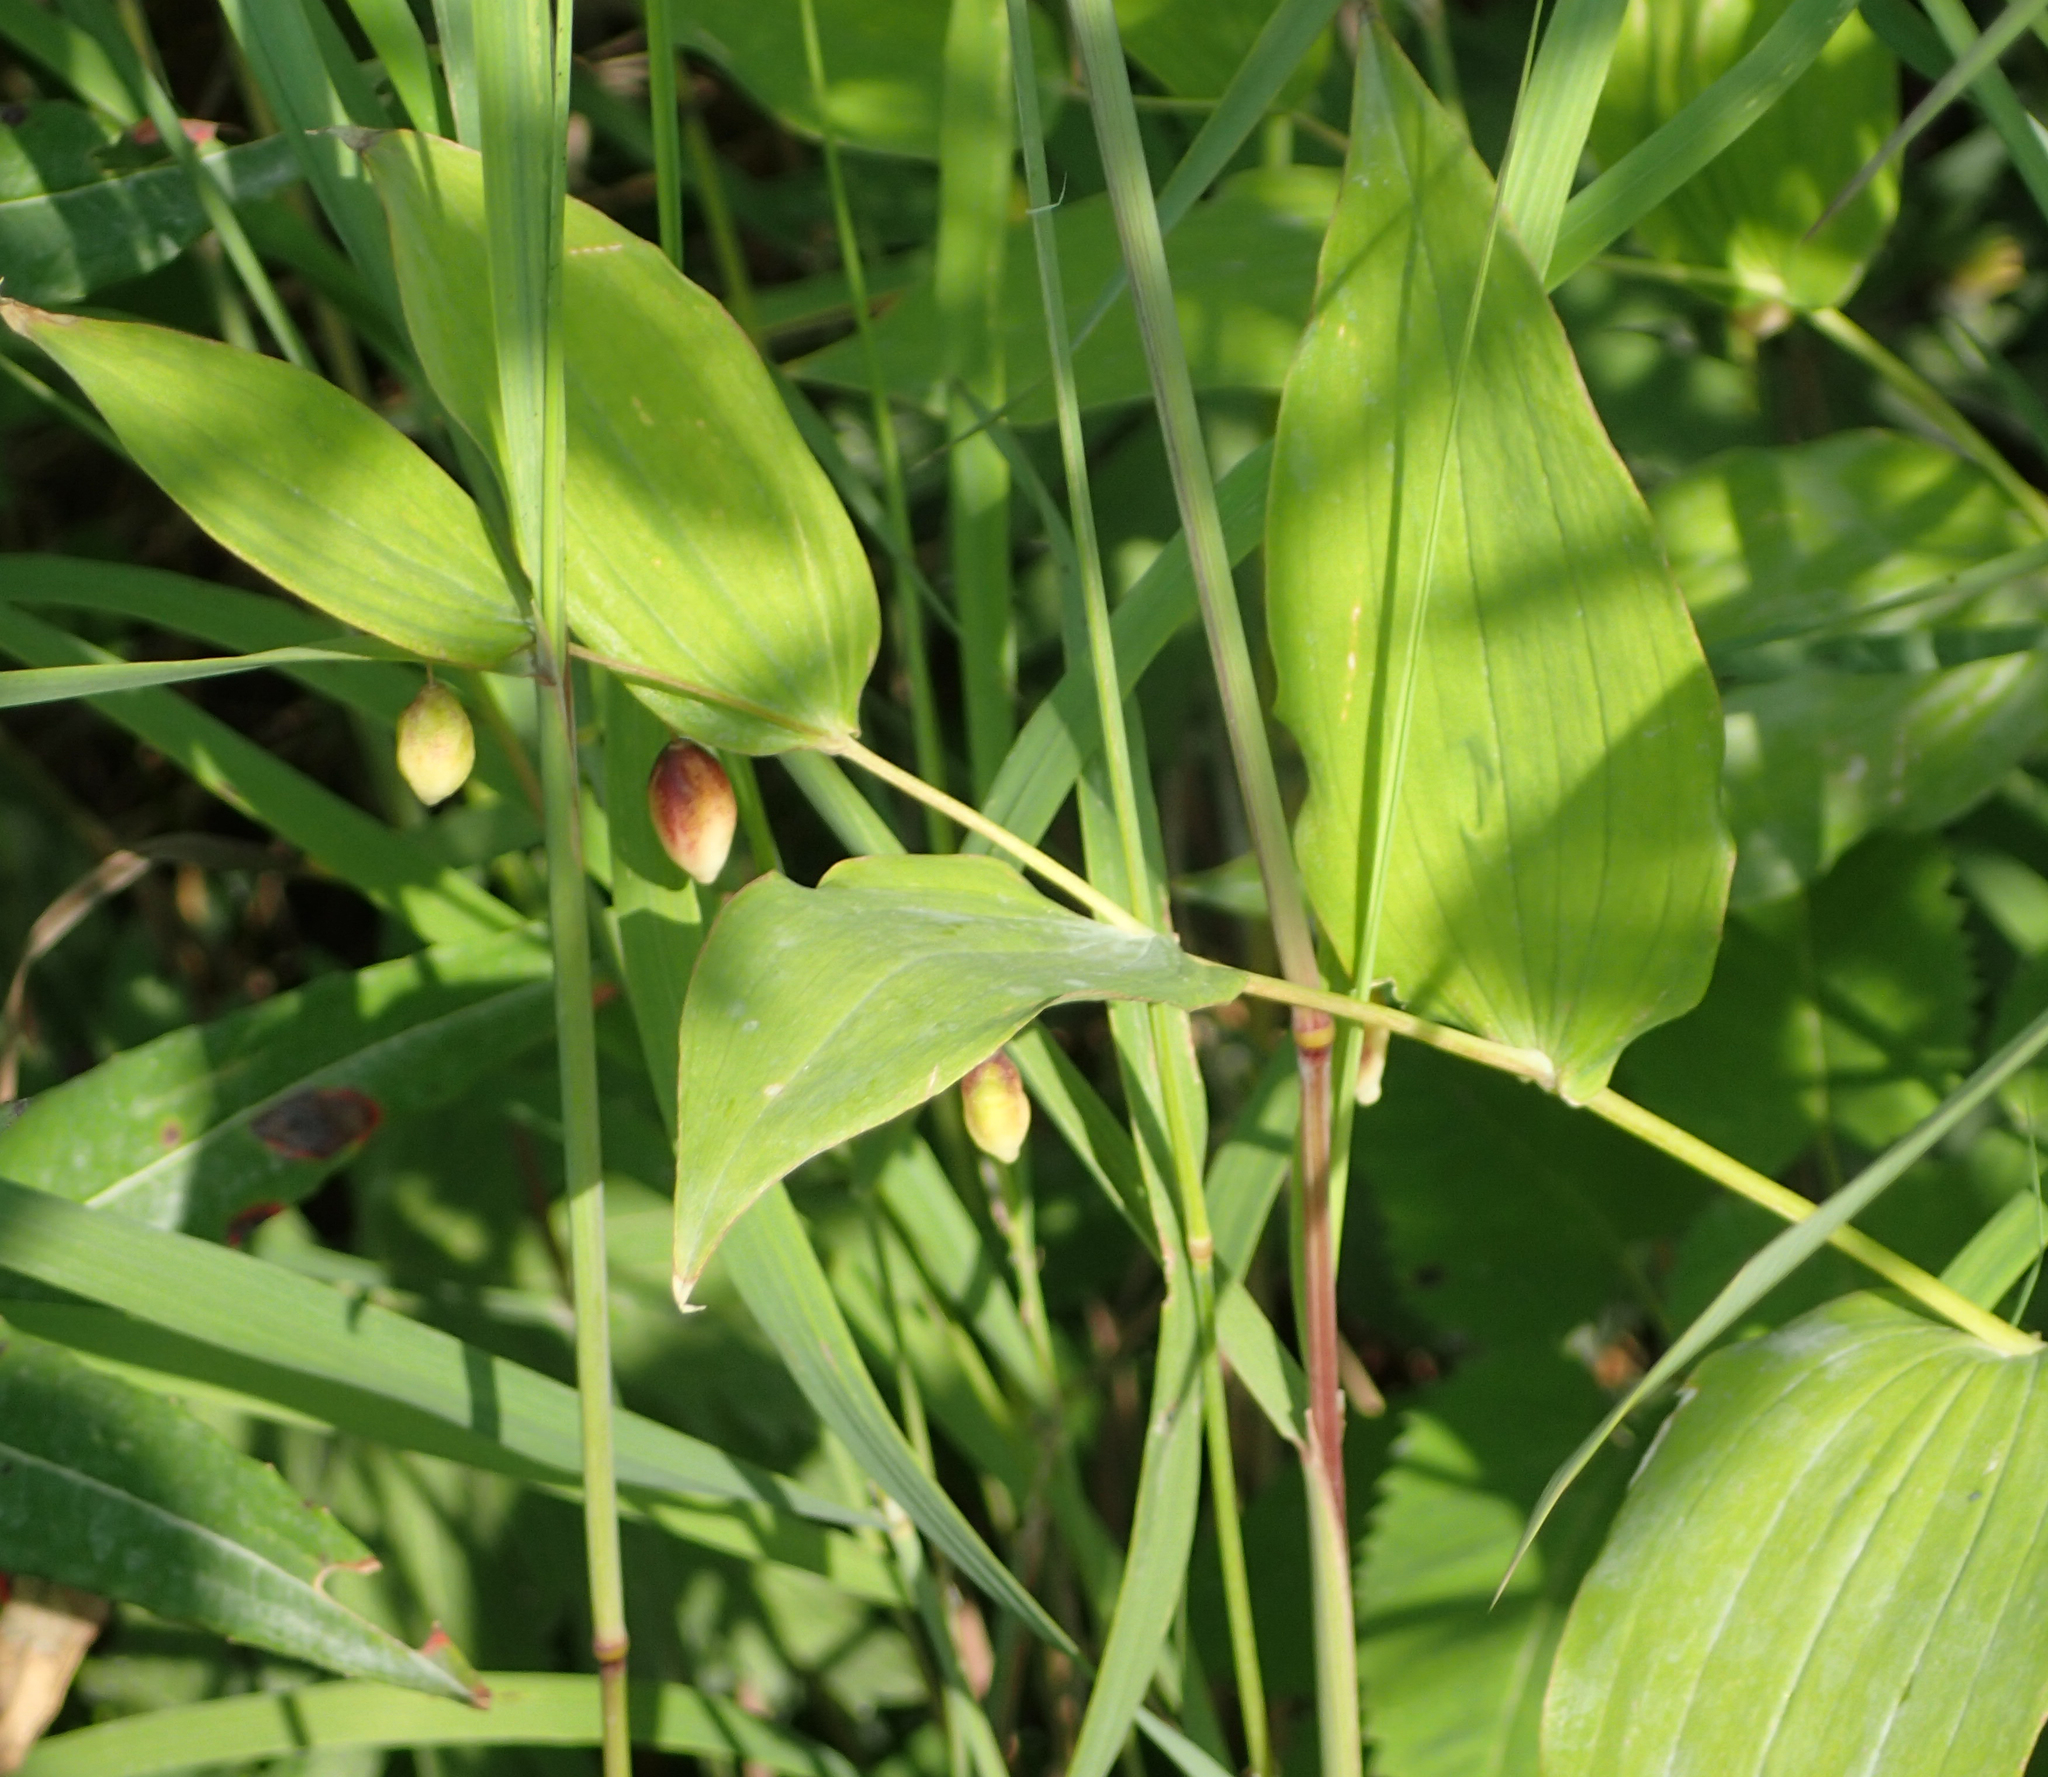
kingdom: Plantae
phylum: Tracheophyta
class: Liliopsida
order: Liliales
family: Liliaceae
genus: Streptopus
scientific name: Streptopus amplexifolius
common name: Clasp twisted stalk
